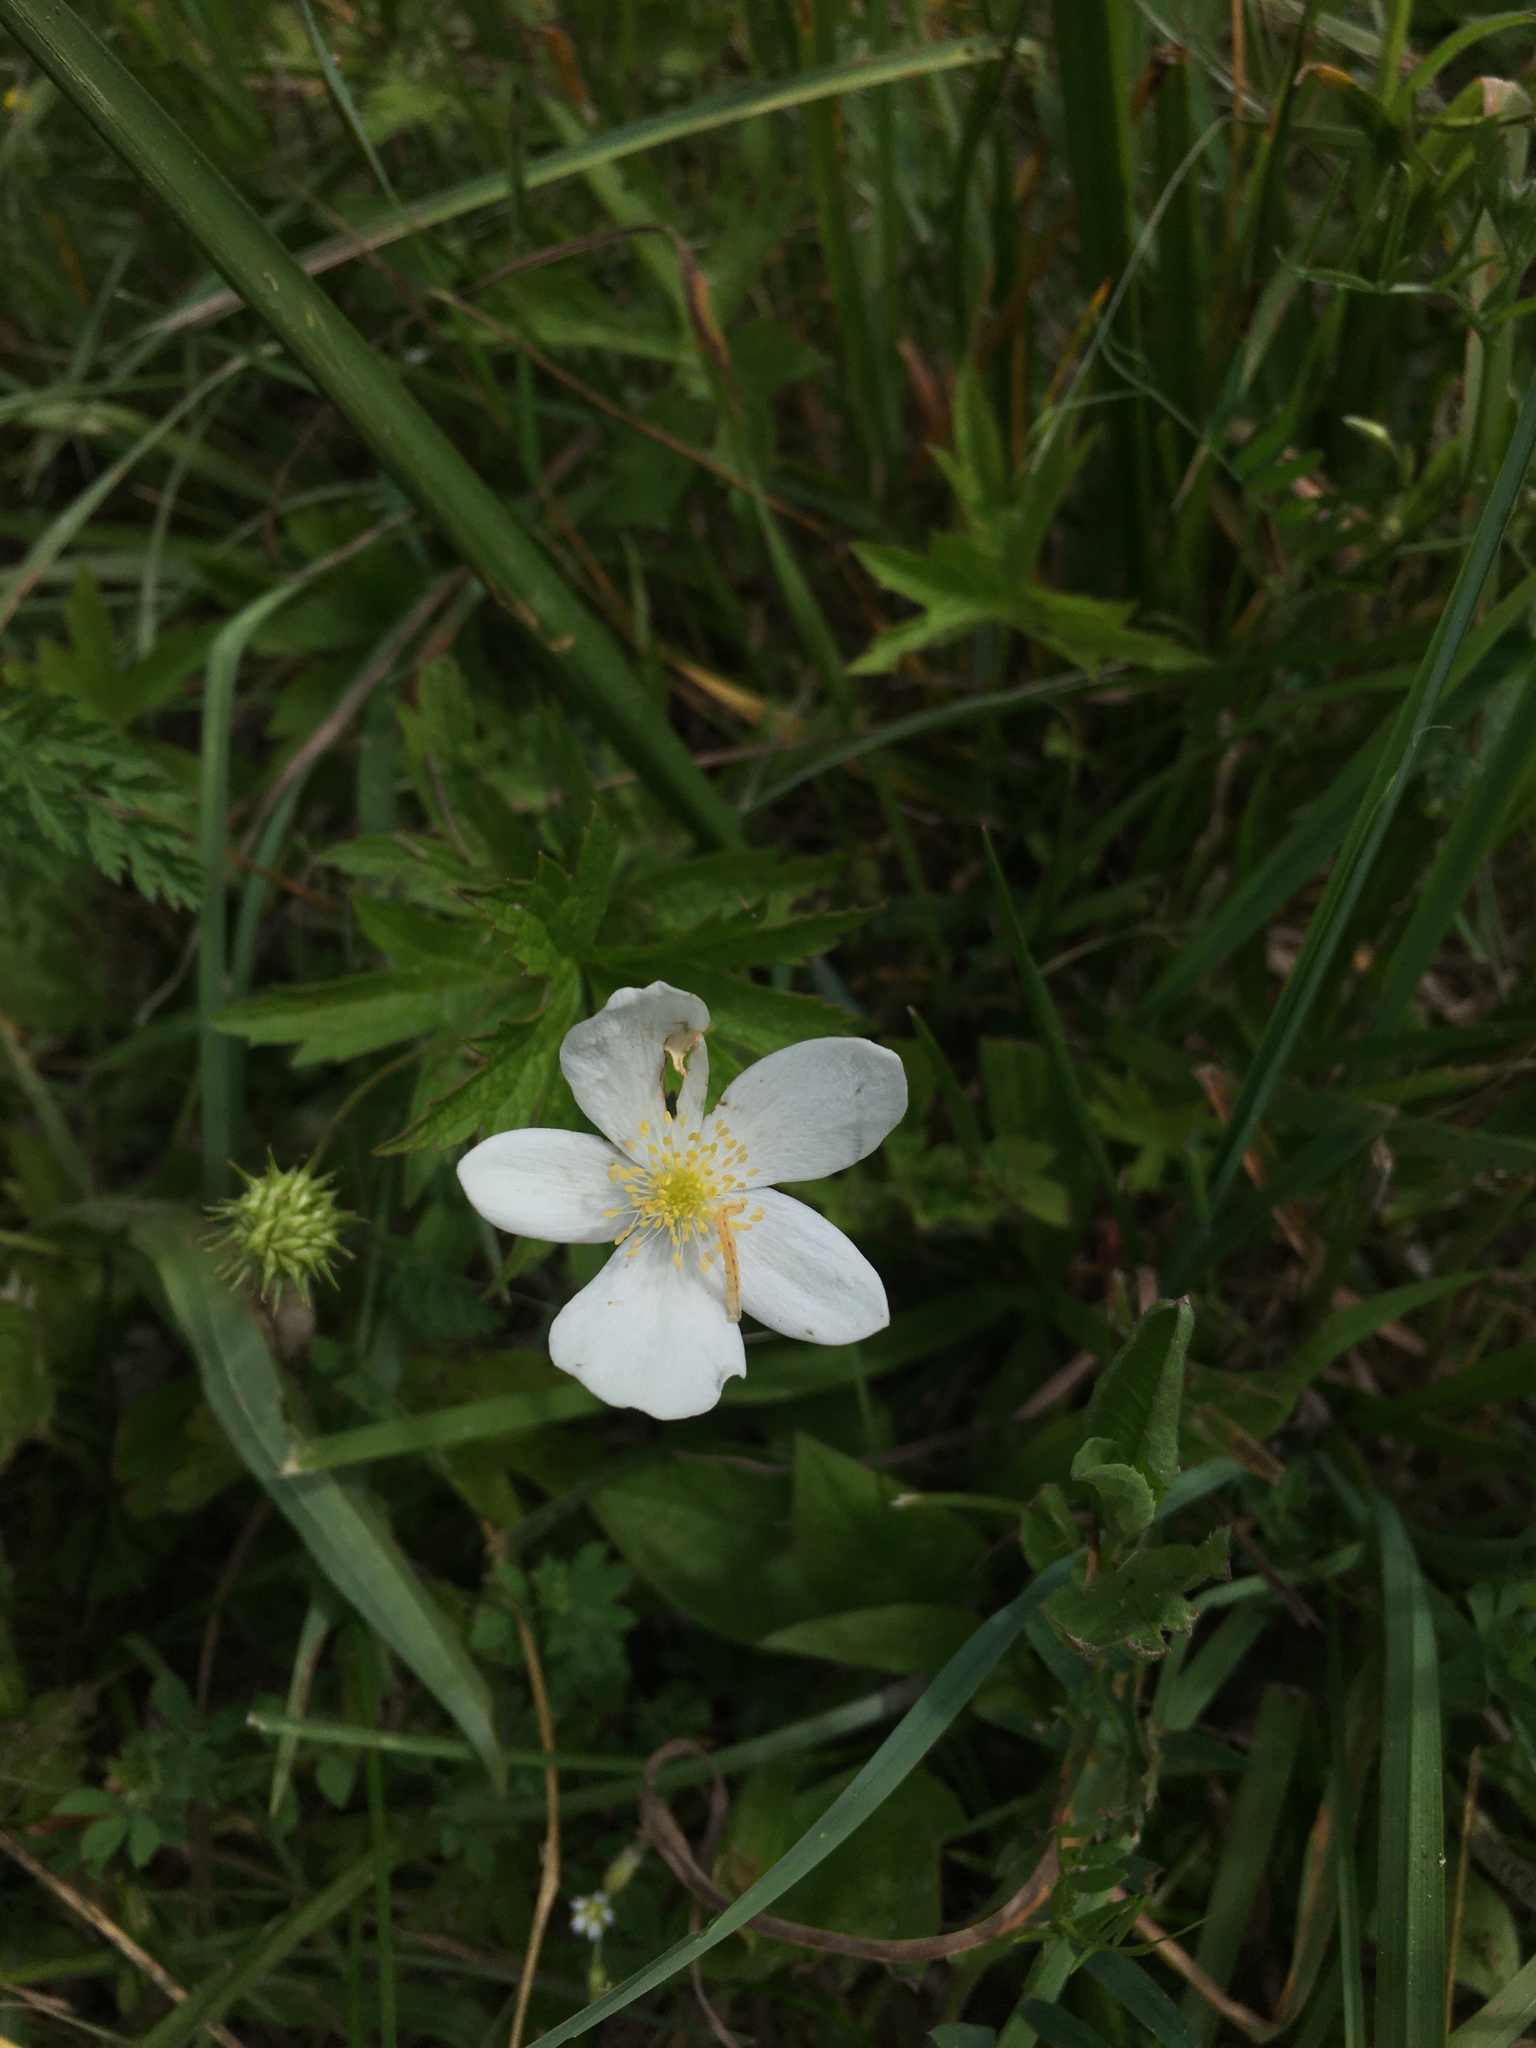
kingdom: Plantae
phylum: Tracheophyta
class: Magnoliopsida
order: Ranunculales
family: Ranunculaceae
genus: Anemonastrum
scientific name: Anemonastrum canadense
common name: Canada anemone
